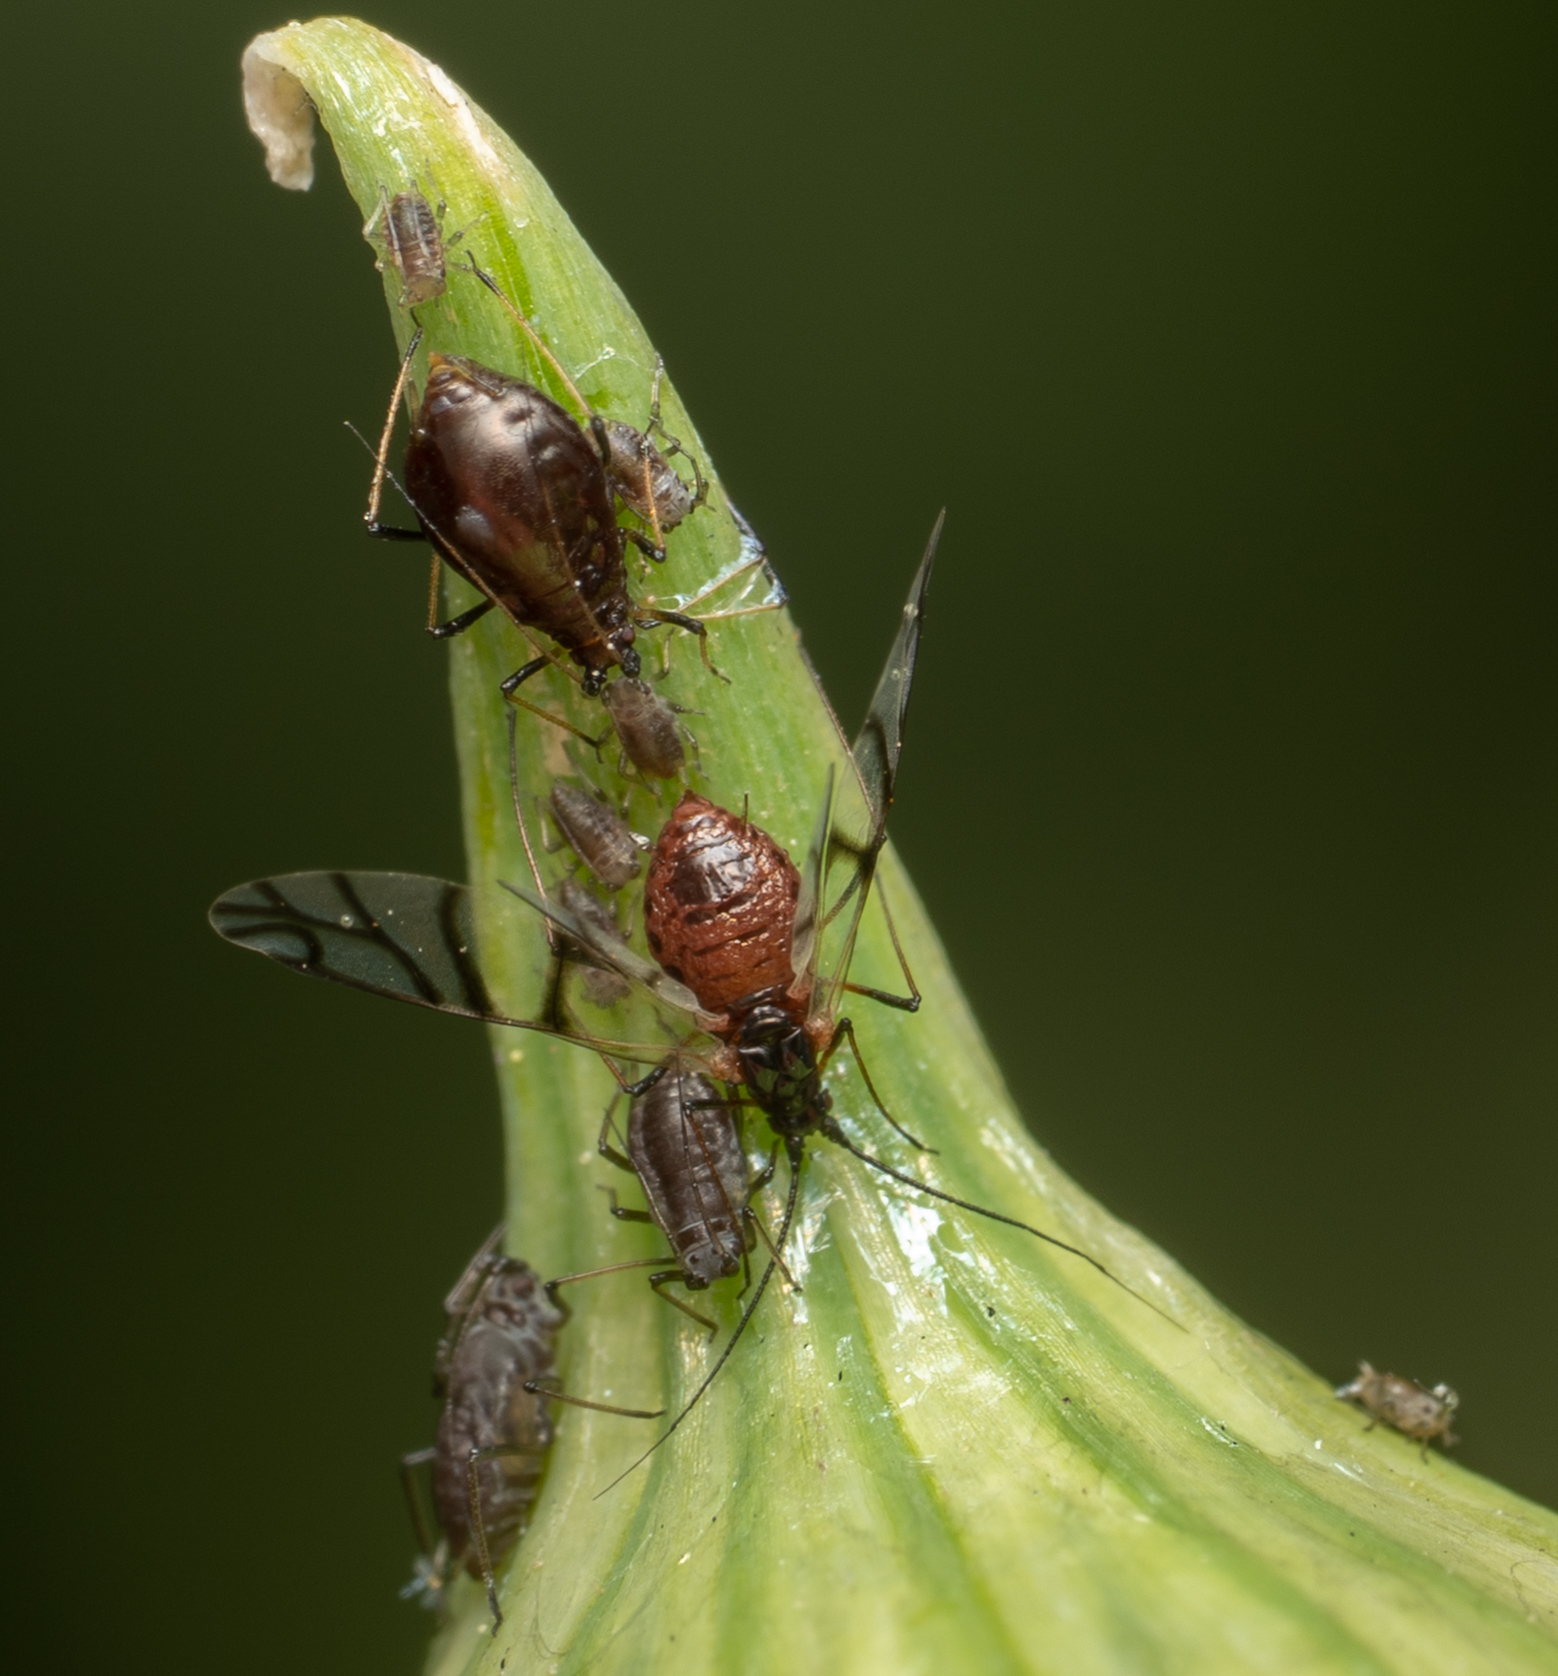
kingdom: Animalia
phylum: Arthropoda
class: Insecta
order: Hemiptera
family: Aphididae
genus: Neotoxoptera
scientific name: Neotoxoptera formosana
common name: Onion aphid
